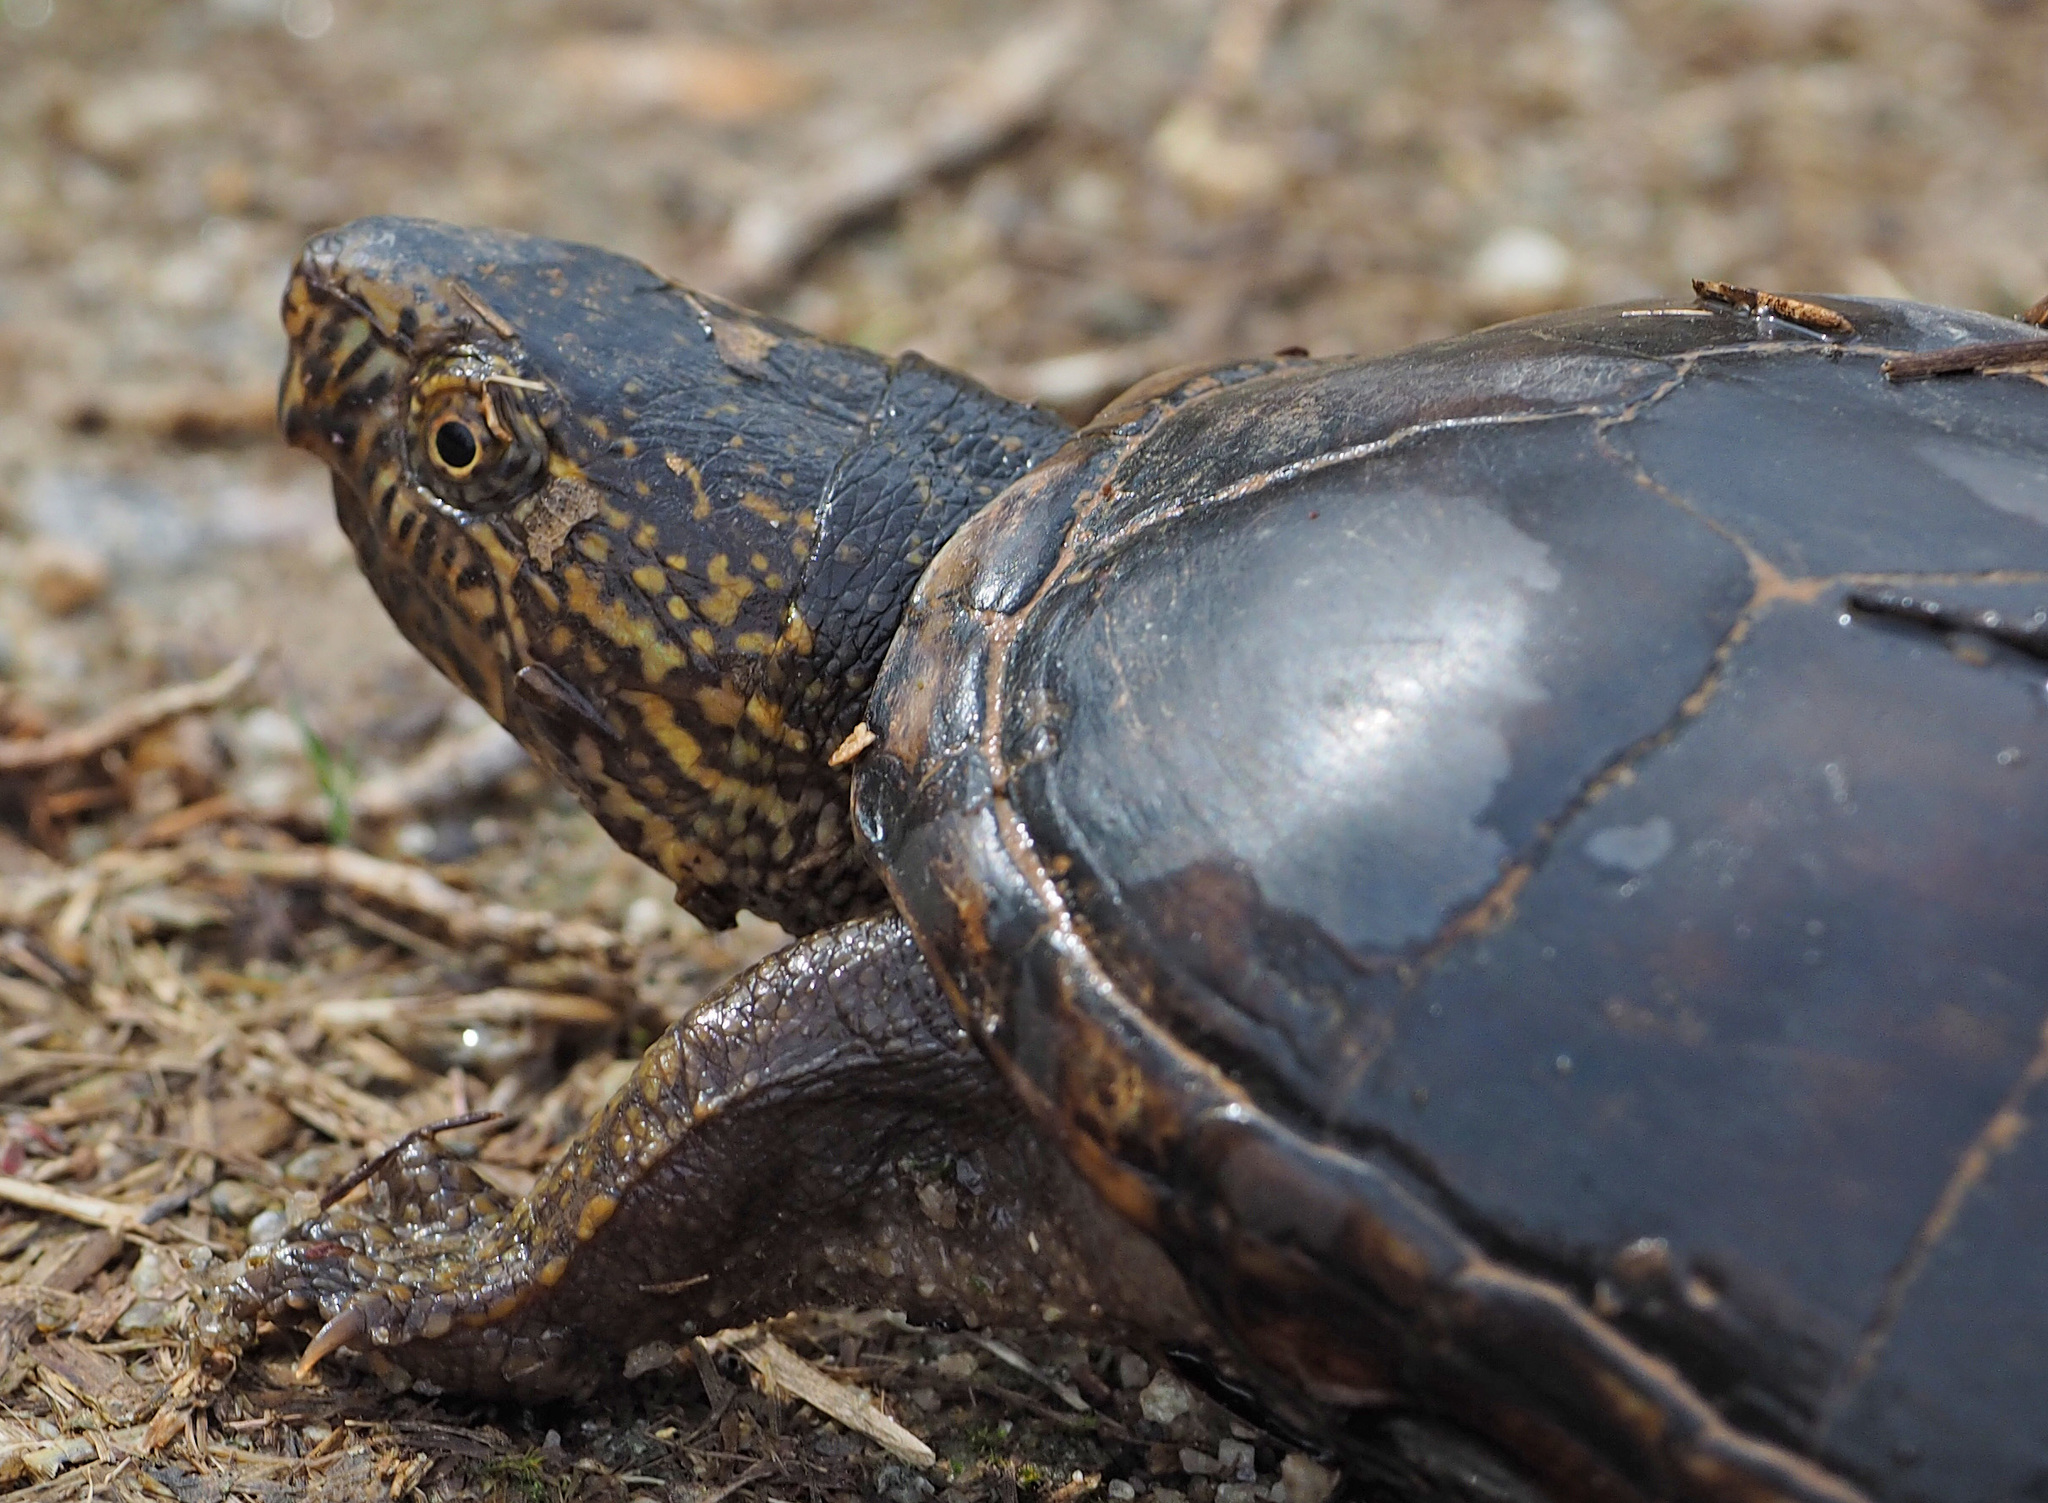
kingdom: Animalia
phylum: Chordata
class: Testudines
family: Kinosternidae
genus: Kinosternon
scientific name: Kinosternon subrubrum
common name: Eastern mud turtle
